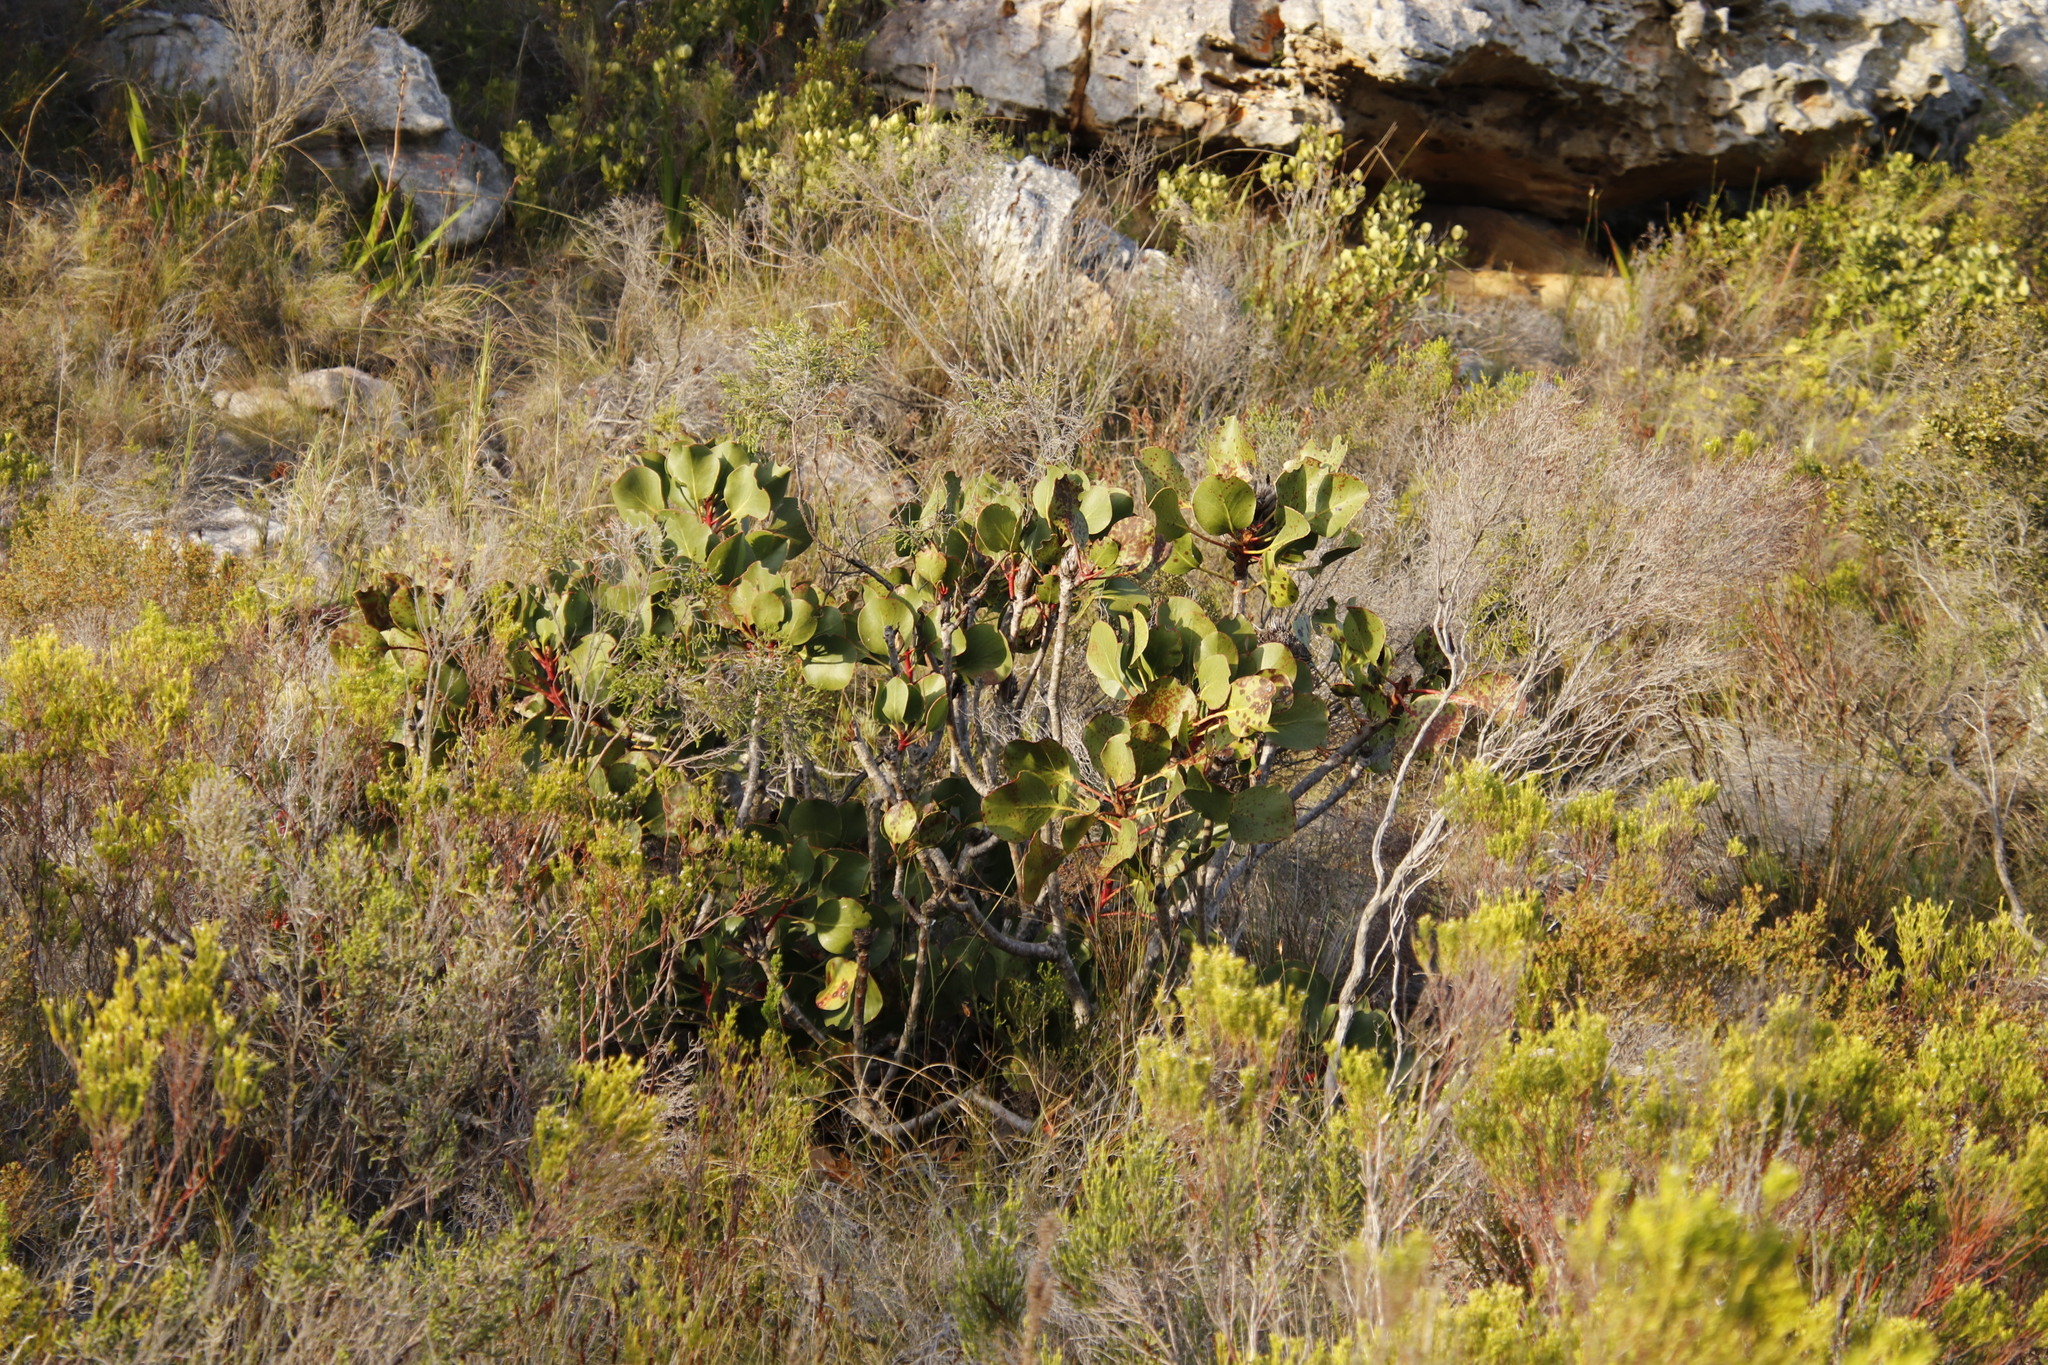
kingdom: Plantae
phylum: Tracheophyta
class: Magnoliopsida
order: Proteales
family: Proteaceae
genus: Protea
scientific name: Protea cynaroides
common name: King protea
